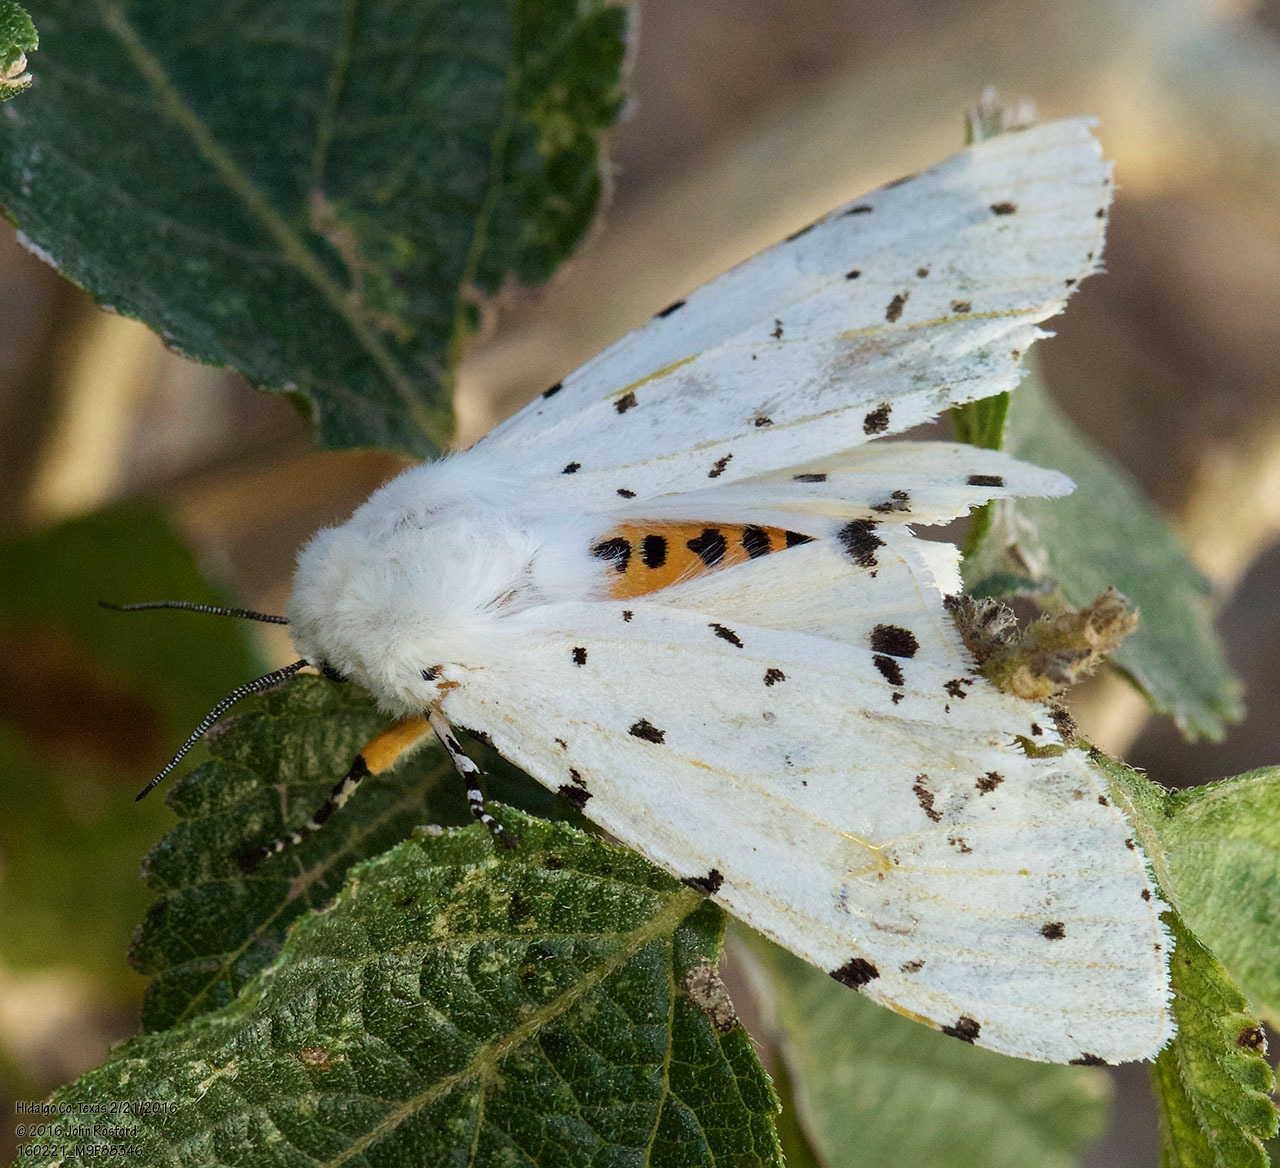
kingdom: Animalia
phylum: Arthropoda
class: Insecta
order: Lepidoptera
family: Erebidae
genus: Estigmene
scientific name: Estigmene acrea
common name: Salt marsh moth
